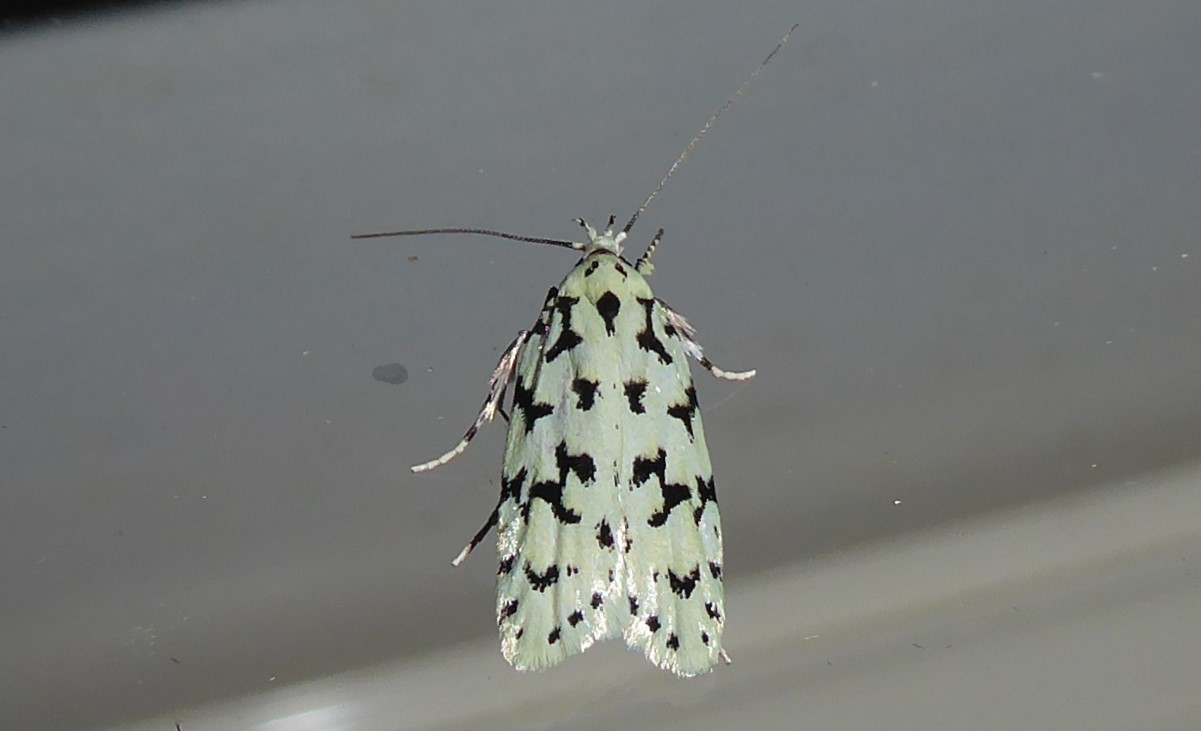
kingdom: Animalia
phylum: Arthropoda
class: Insecta
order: Lepidoptera
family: Oecophoridae
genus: Izatha
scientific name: Izatha huttoni
